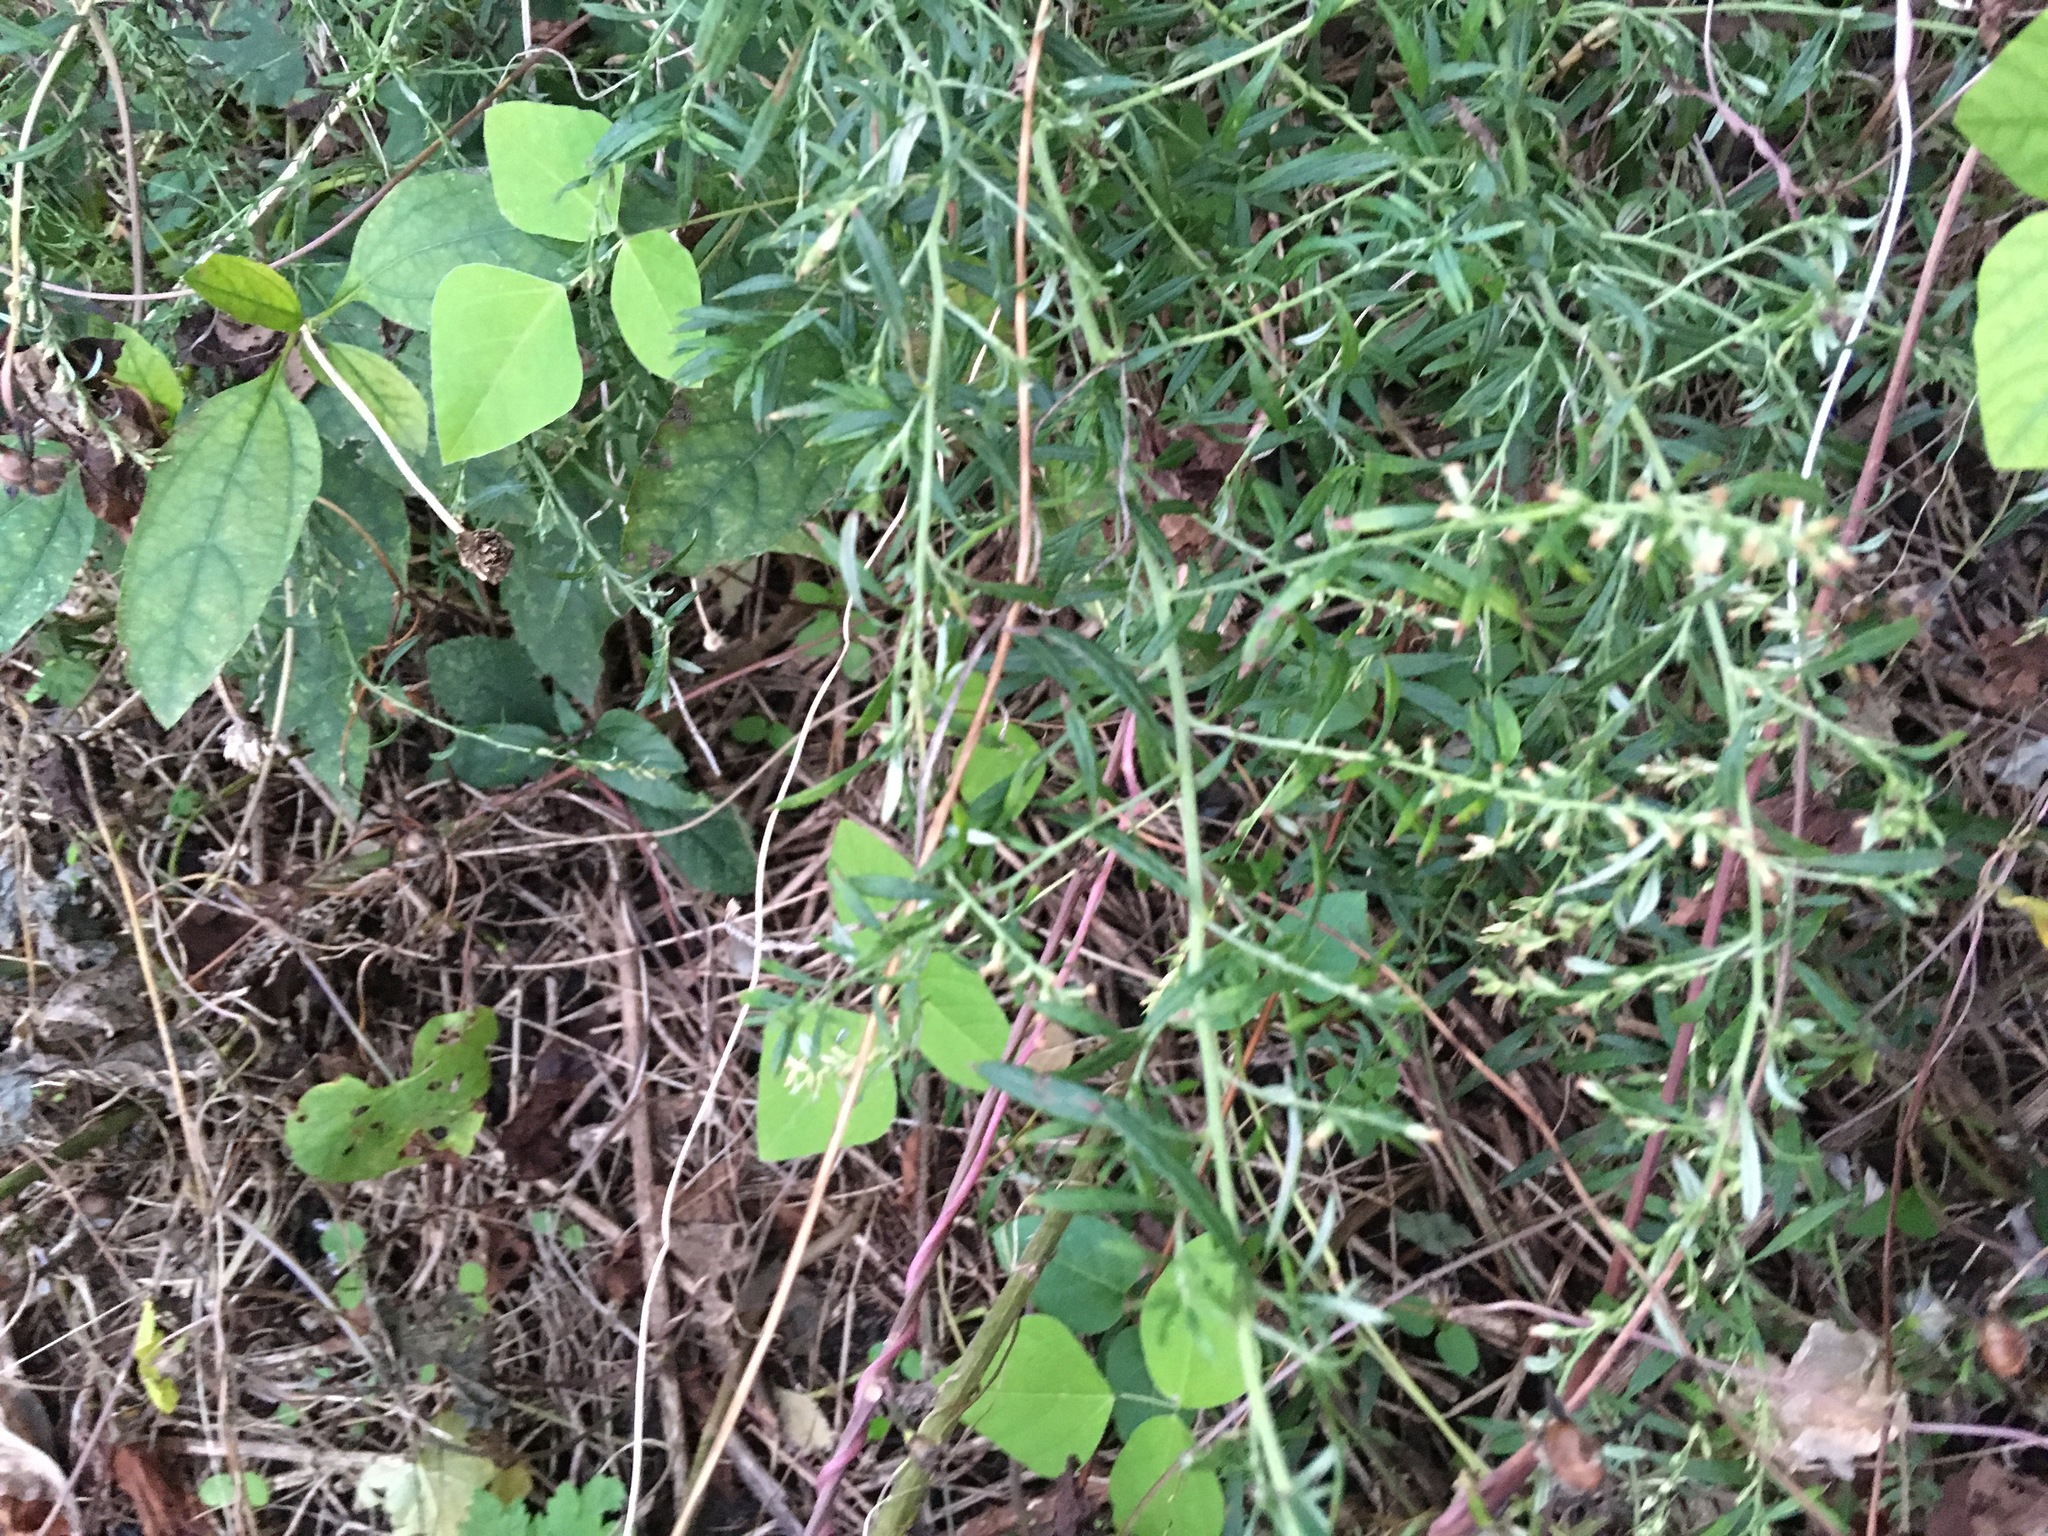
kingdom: Plantae
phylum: Tracheophyta
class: Magnoliopsida
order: Asterales
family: Asteraceae
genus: Artemisia
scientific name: Artemisia vulgaris
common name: Mugwort
